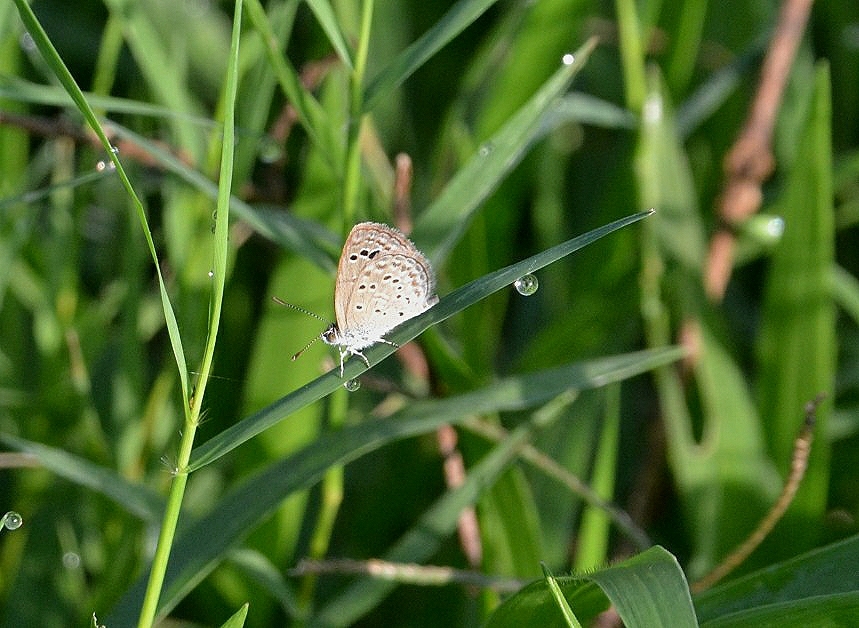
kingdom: Animalia
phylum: Arthropoda
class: Insecta
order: Lepidoptera
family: Lycaenidae
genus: Zizeeria
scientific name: Zizeeria karsandra
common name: Dark grass blue
